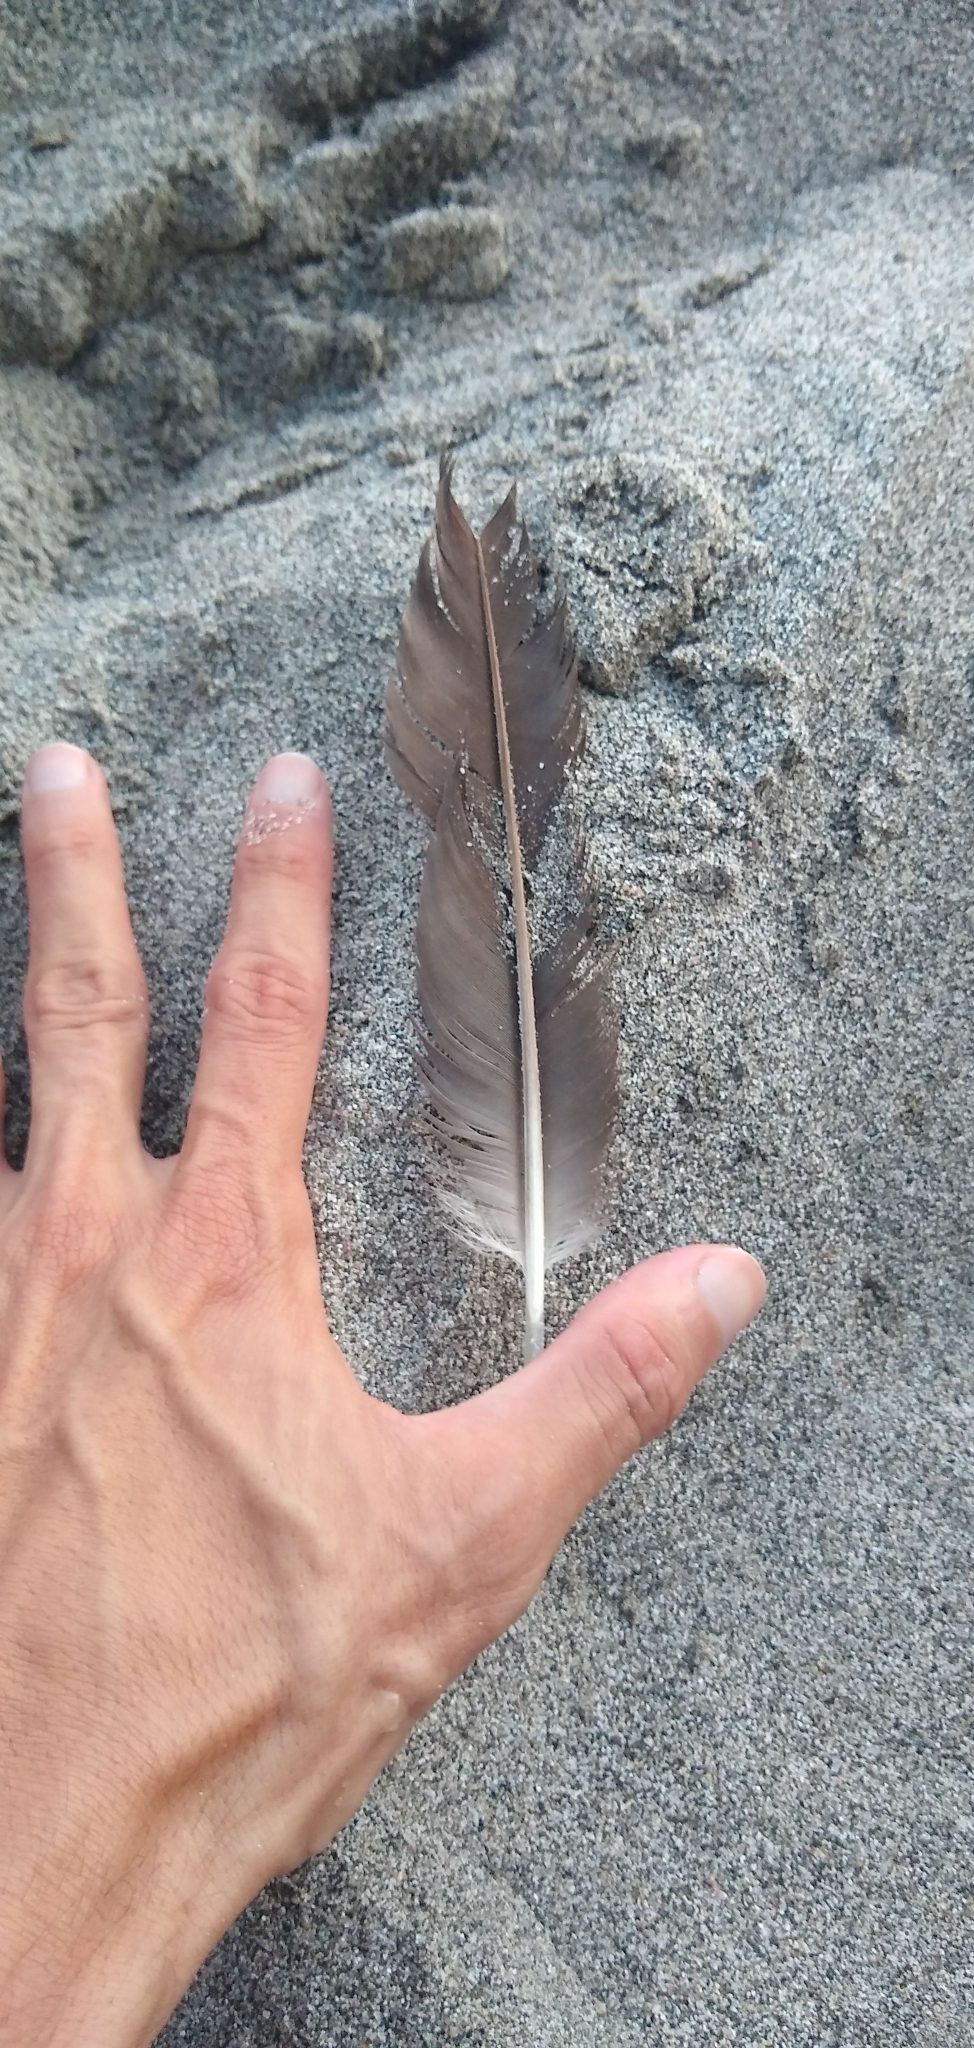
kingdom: Animalia
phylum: Chordata
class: Aves
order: Suliformes
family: Sulidae
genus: Sula
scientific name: Sula leucogaster
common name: Brown booby
